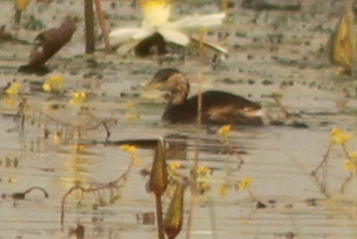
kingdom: Animalia
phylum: Chordata
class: Aves
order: Podicipediformes
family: Podicipedidae
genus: Tachybaptus
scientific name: Tachybaptus ruficollis
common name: Little grebe
